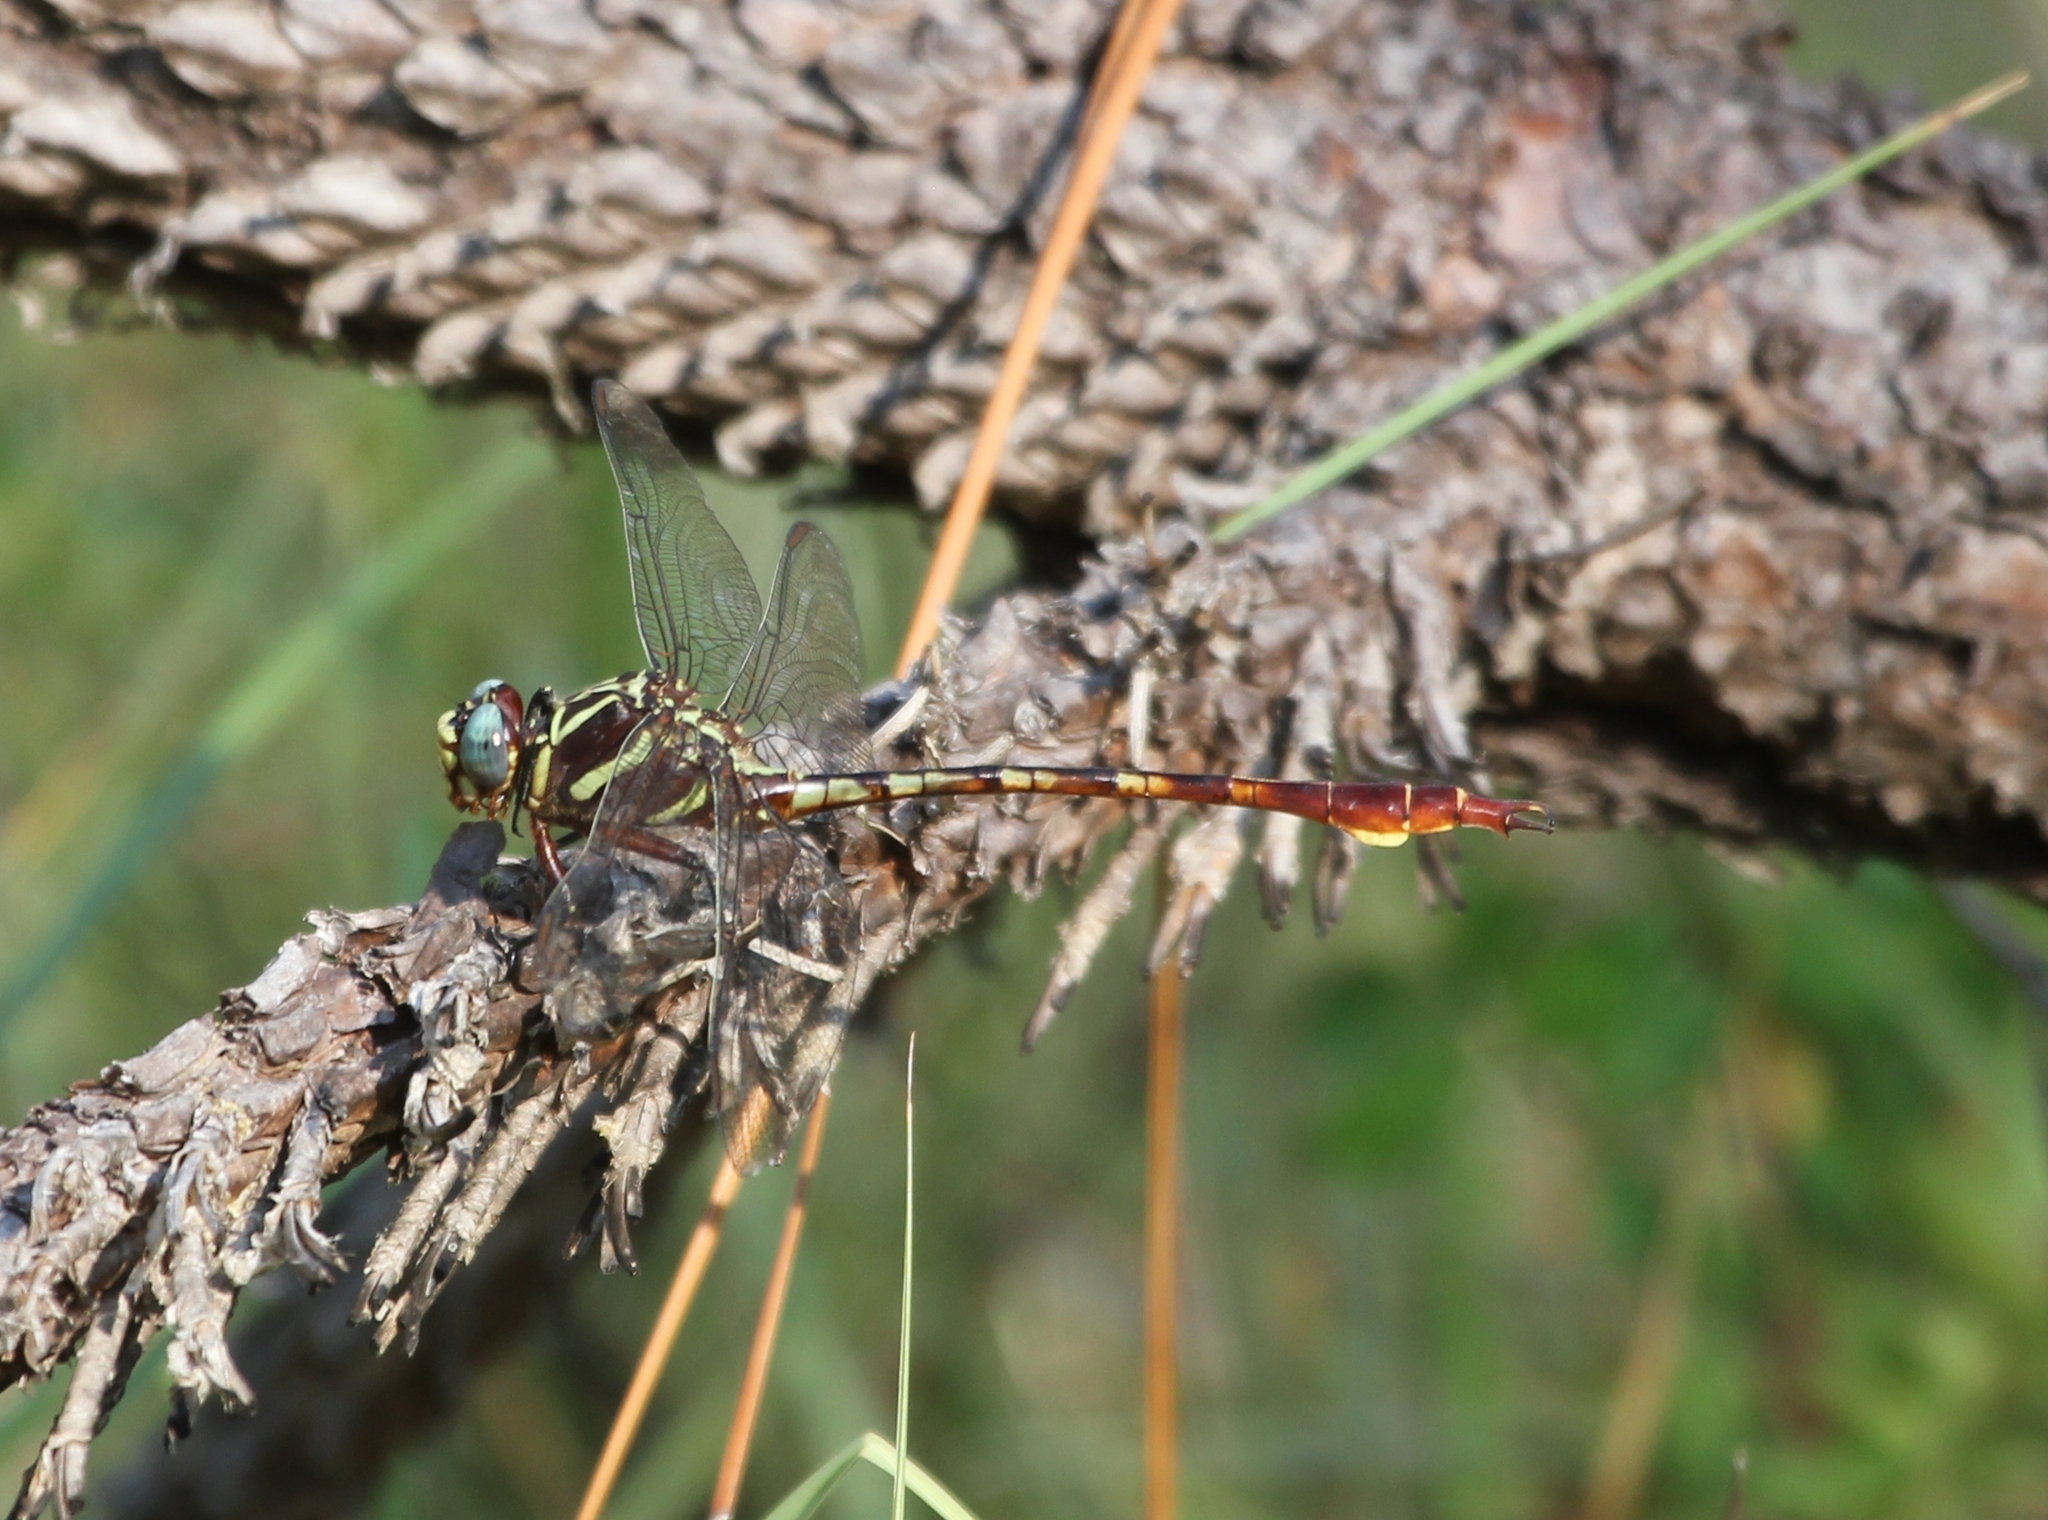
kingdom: Animalia
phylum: Arthropoda
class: Insecta
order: Odonata
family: Gomphidae
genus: Aphylla
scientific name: Aphylla williamsoni
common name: Two-striped forceptail
